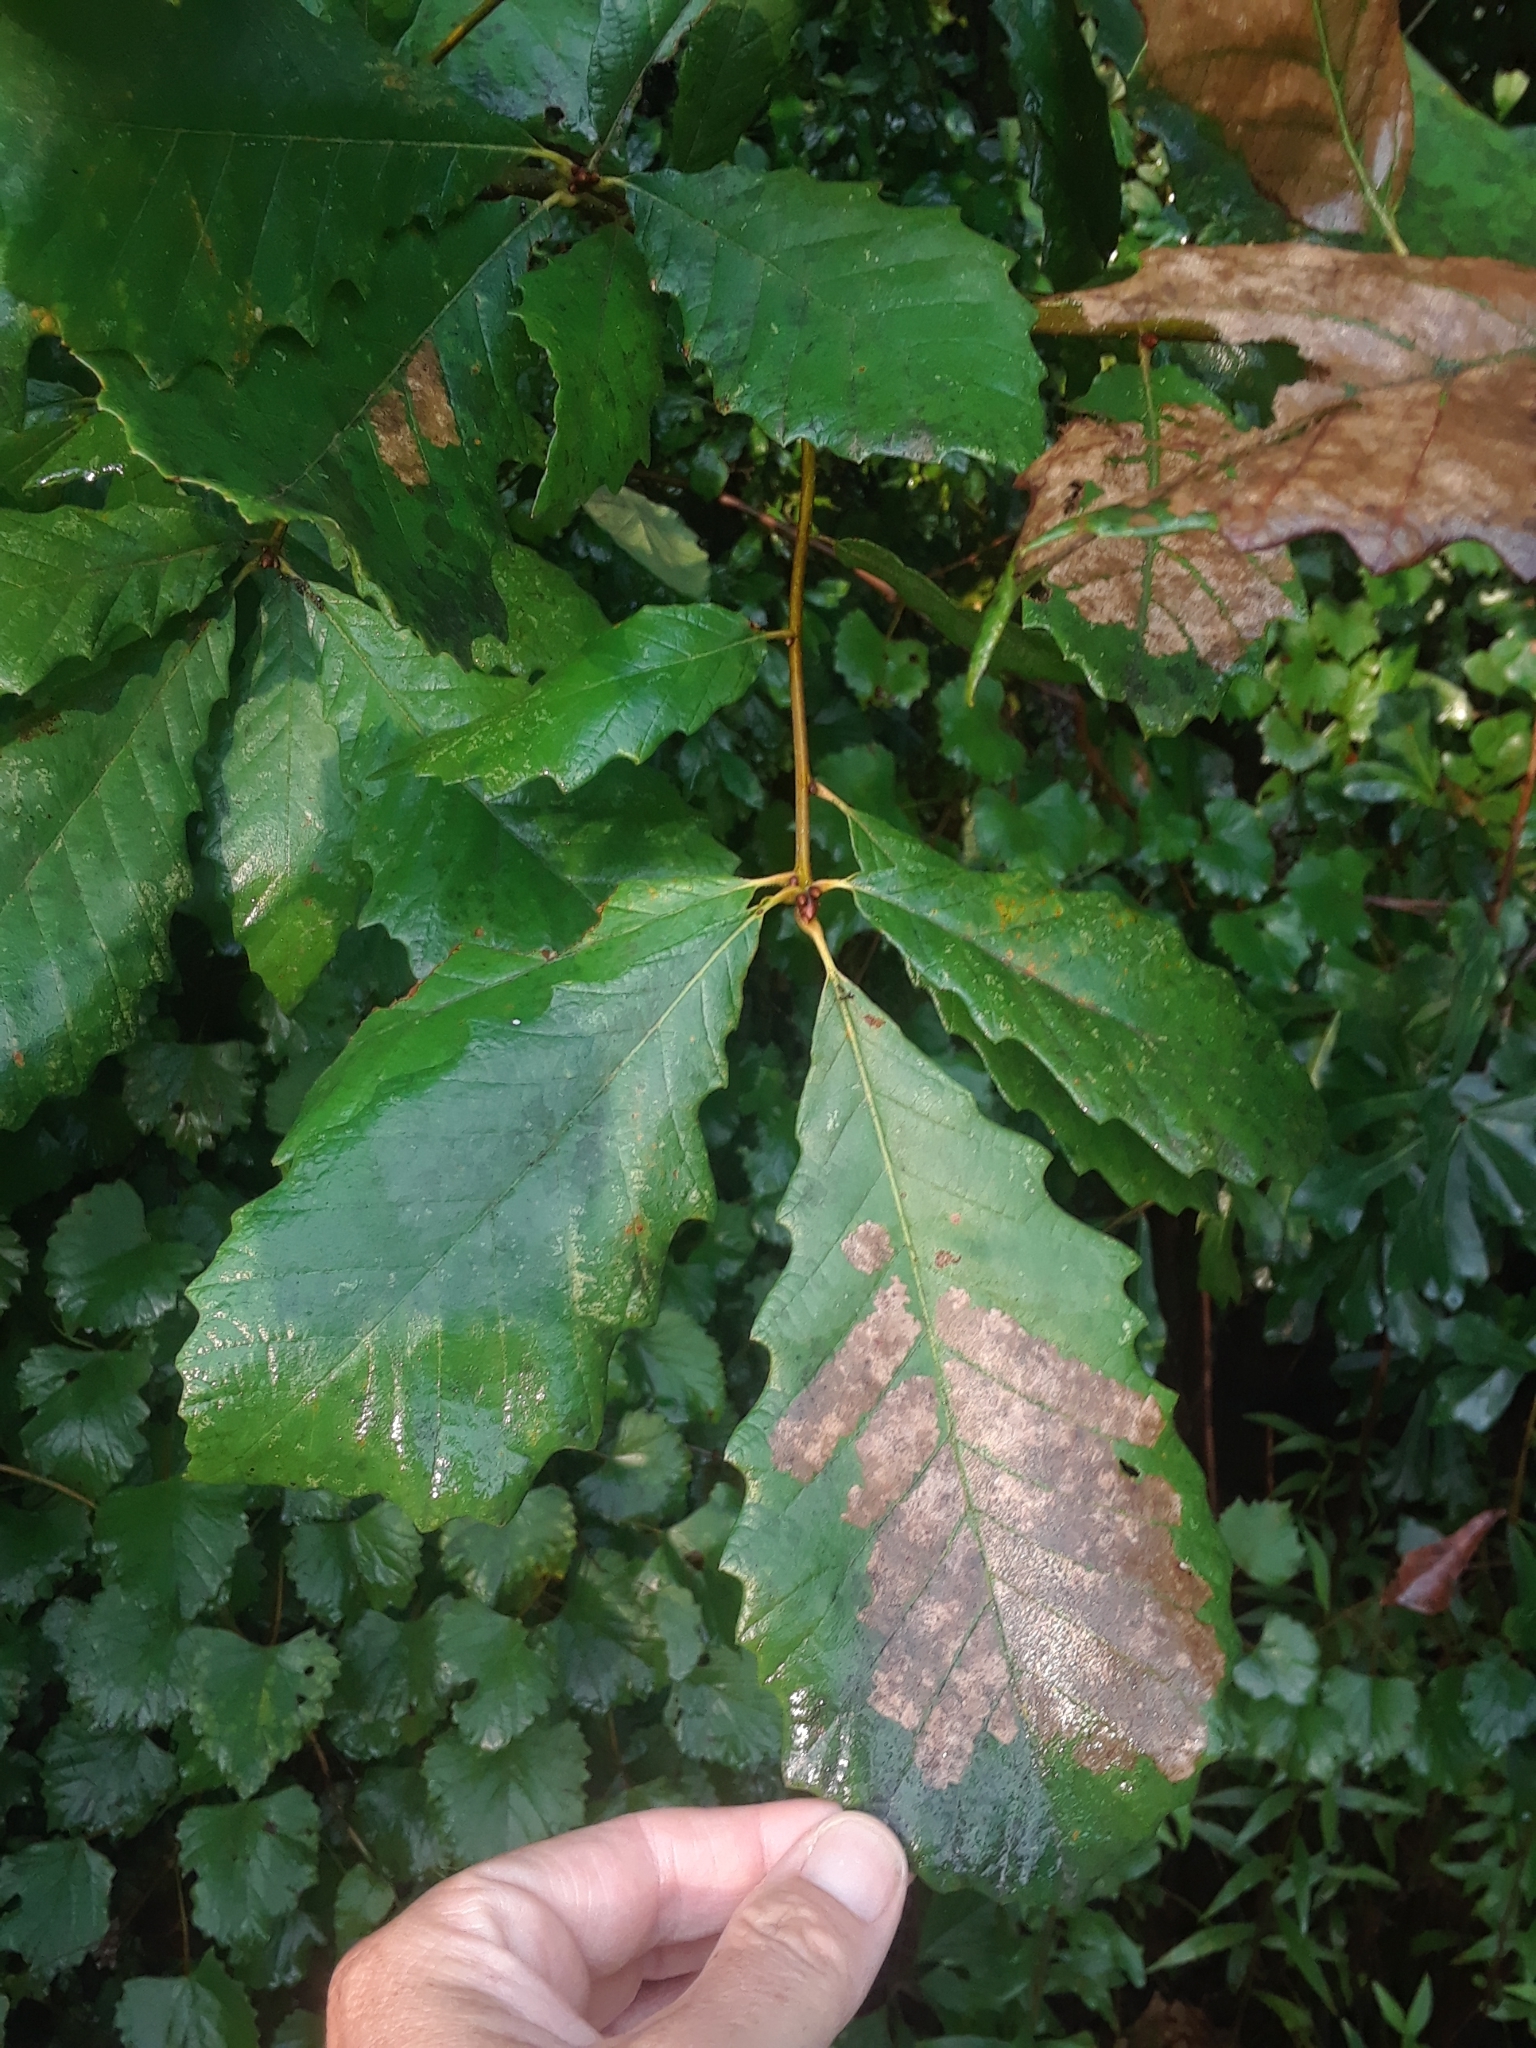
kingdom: Plantae
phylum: Tracheophyta
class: Magnoliopsida
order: Fagales
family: Fagaceae
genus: Quercus
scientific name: Quercus michauxii
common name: Swamp chestnut oak
